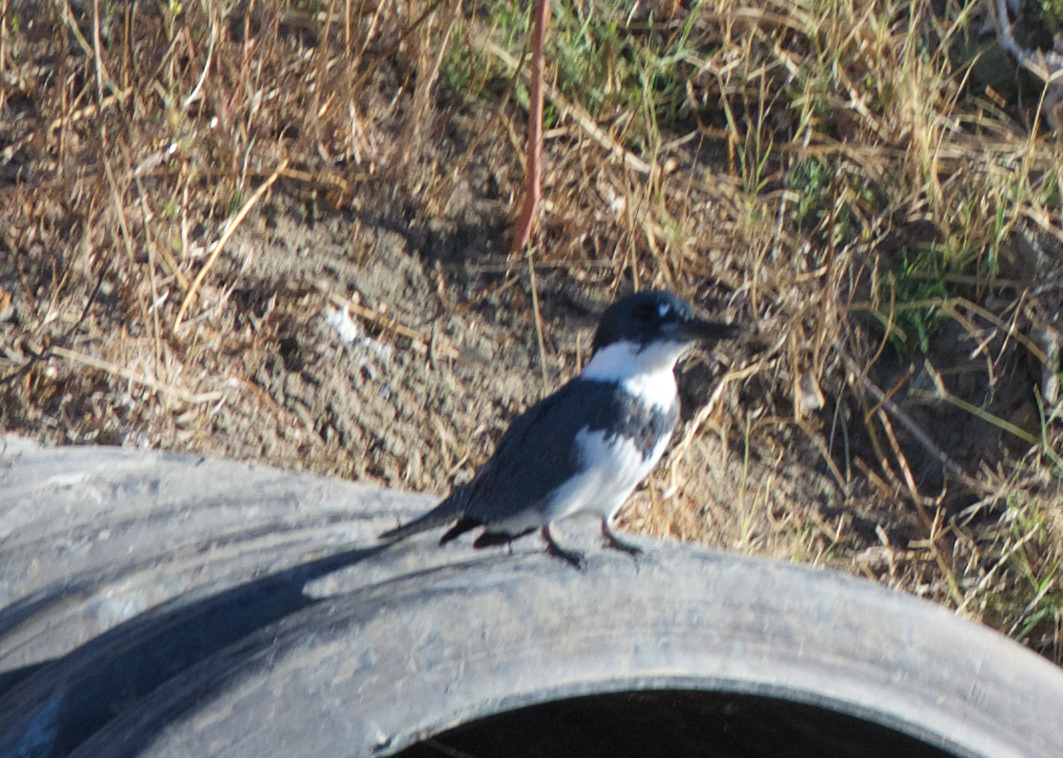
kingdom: Animalia
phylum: Chordata
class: Aves
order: Coraciiformes
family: Alcedinidae
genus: Megaceryle
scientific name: Megaceryle alcyon
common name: Belted kingfisher
